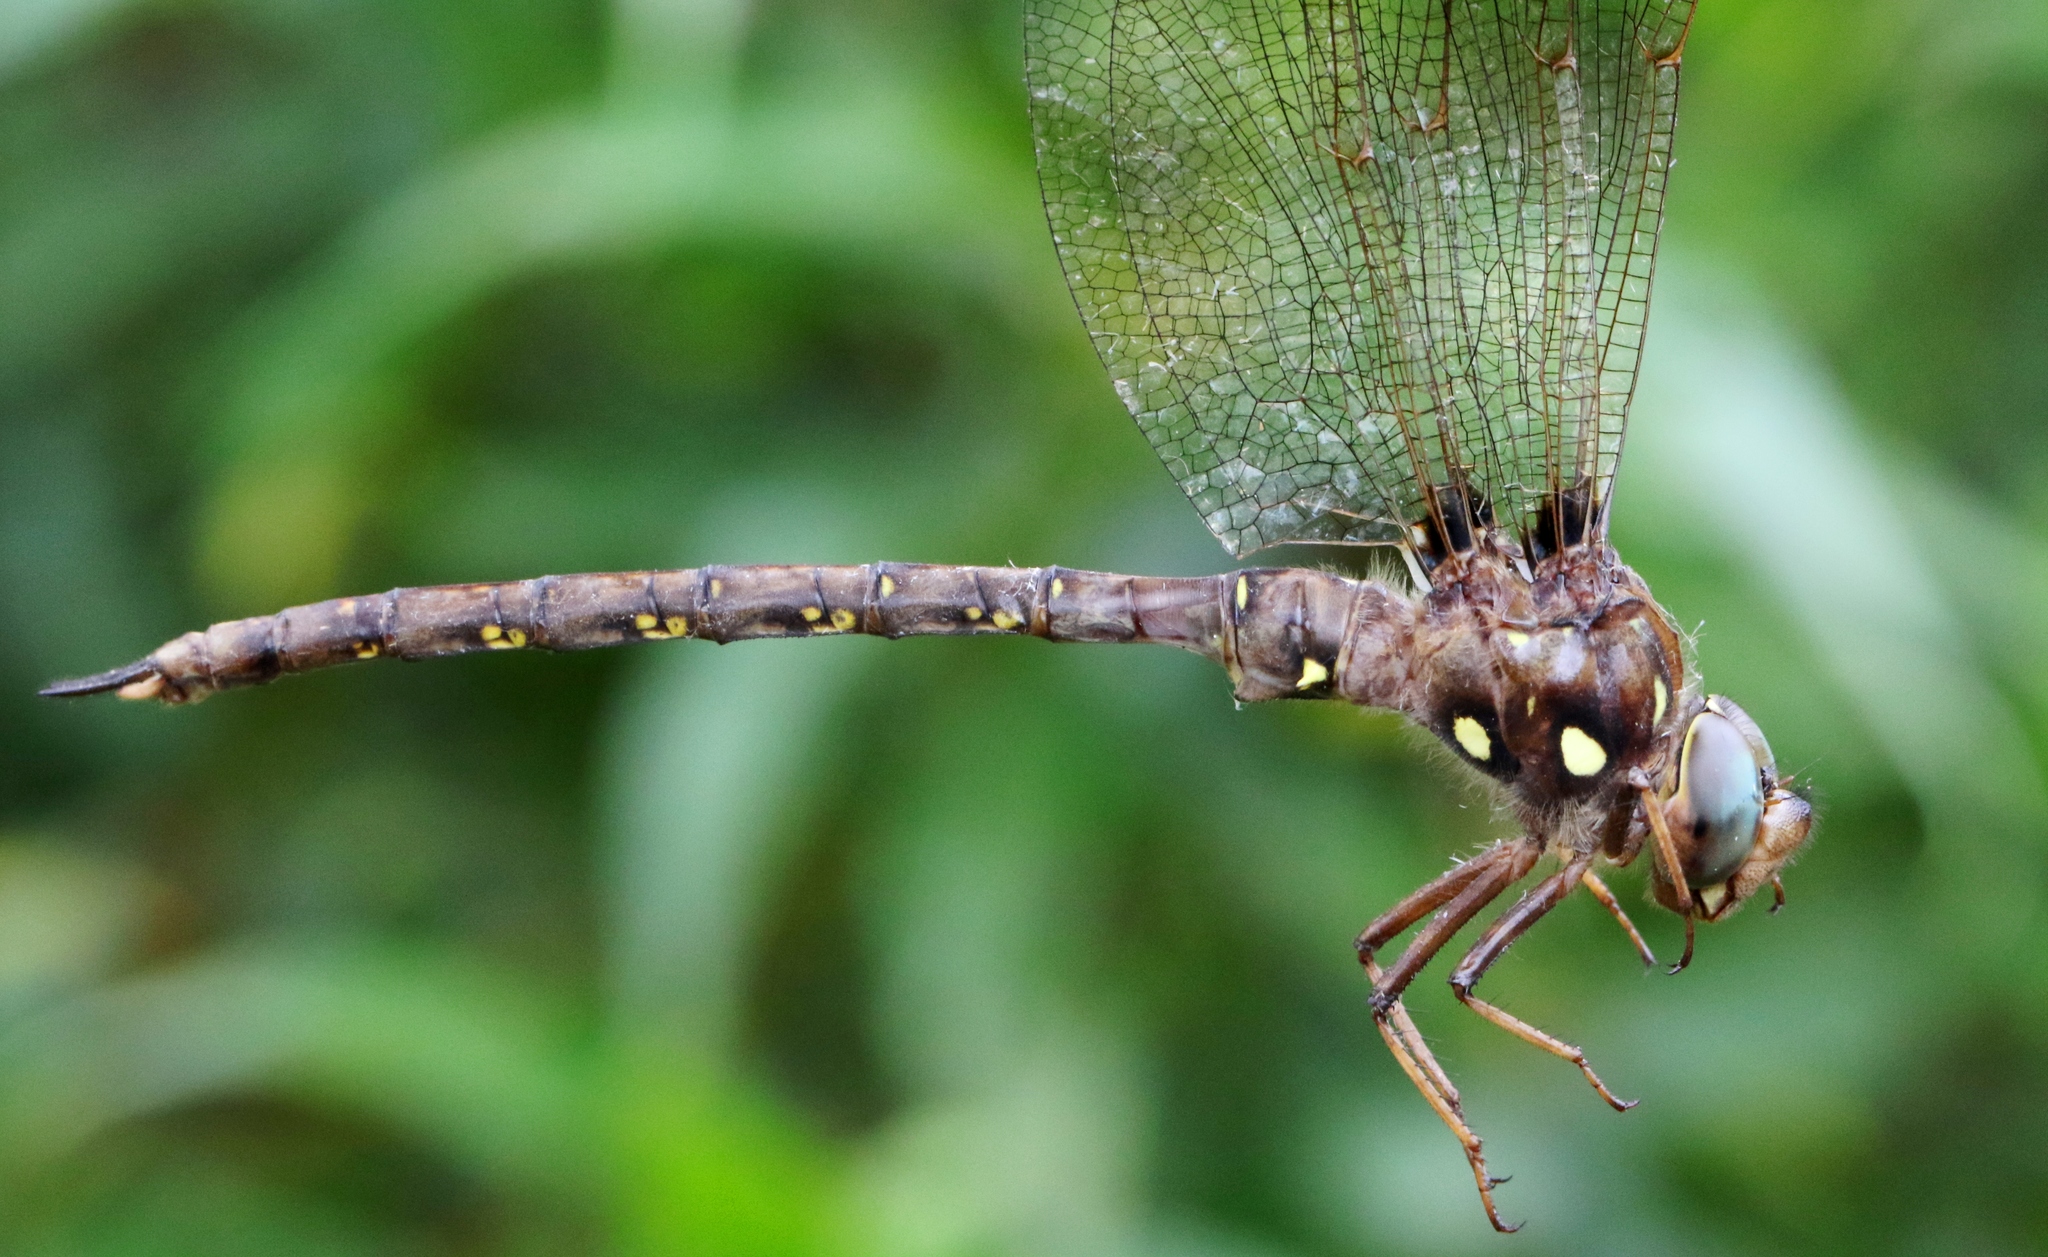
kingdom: Animalia
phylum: Arthropoda
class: Insecta
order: Odonata
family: Aeshnidae
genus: Boyeria
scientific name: Boyeria vinosa
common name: Fawn darner
